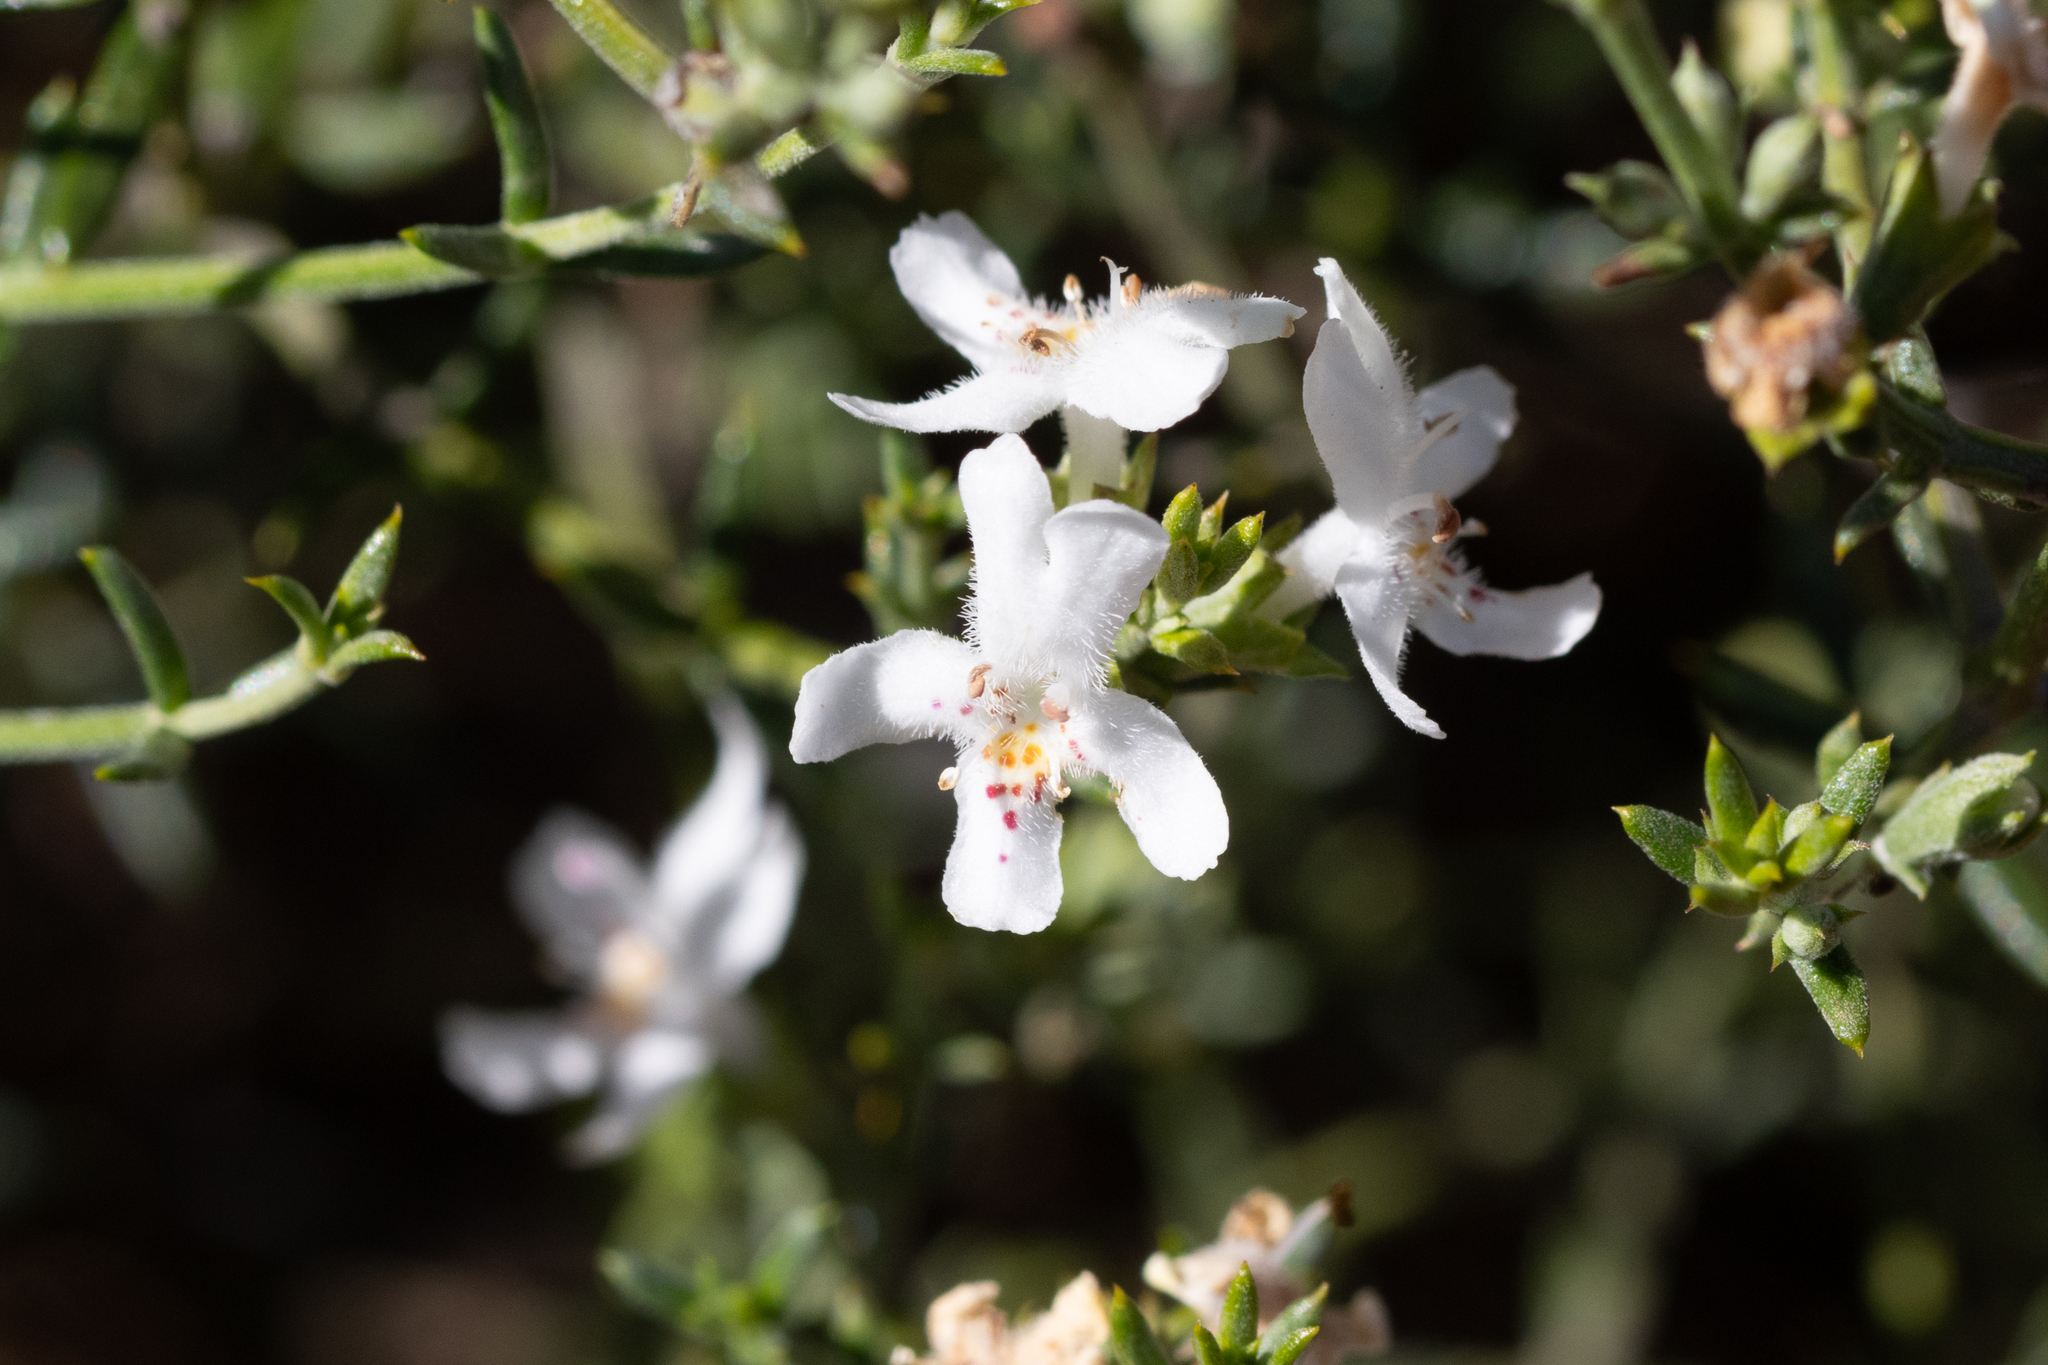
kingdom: Plantae
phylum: Tracheophyta
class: Magnoliopsida
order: Lamiales
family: Lamiaceae
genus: Westringia
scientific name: Westringia rigida
